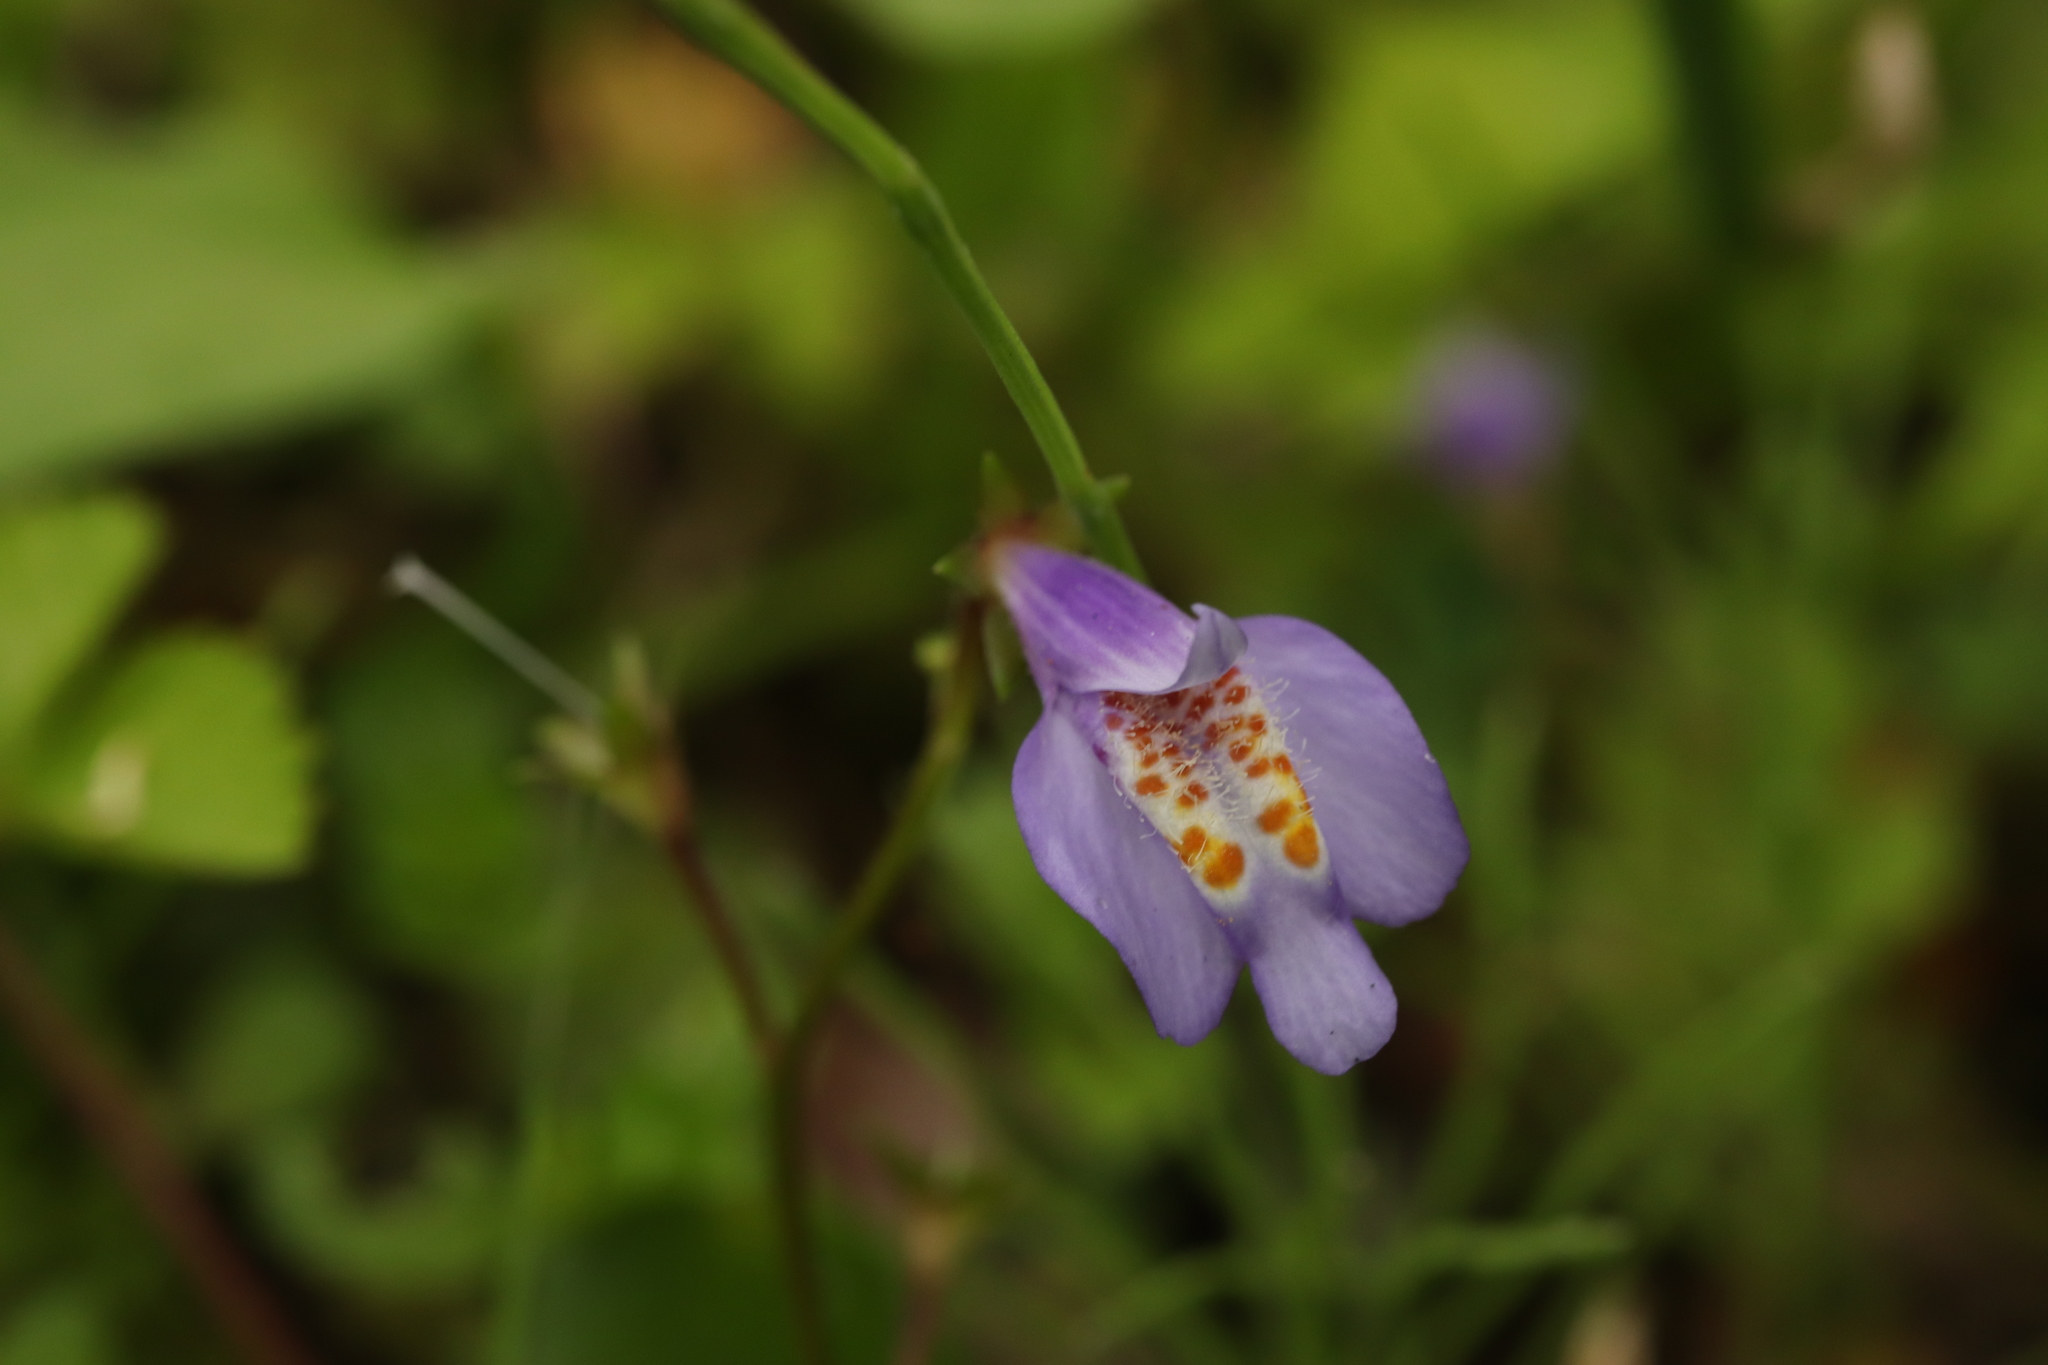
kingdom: Plantae
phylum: Tracheophyta
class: Magnoliopsida
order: Lamiales
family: Mazaceae
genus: Mazus
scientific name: Mazus miquelii
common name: Miquel's mazus
